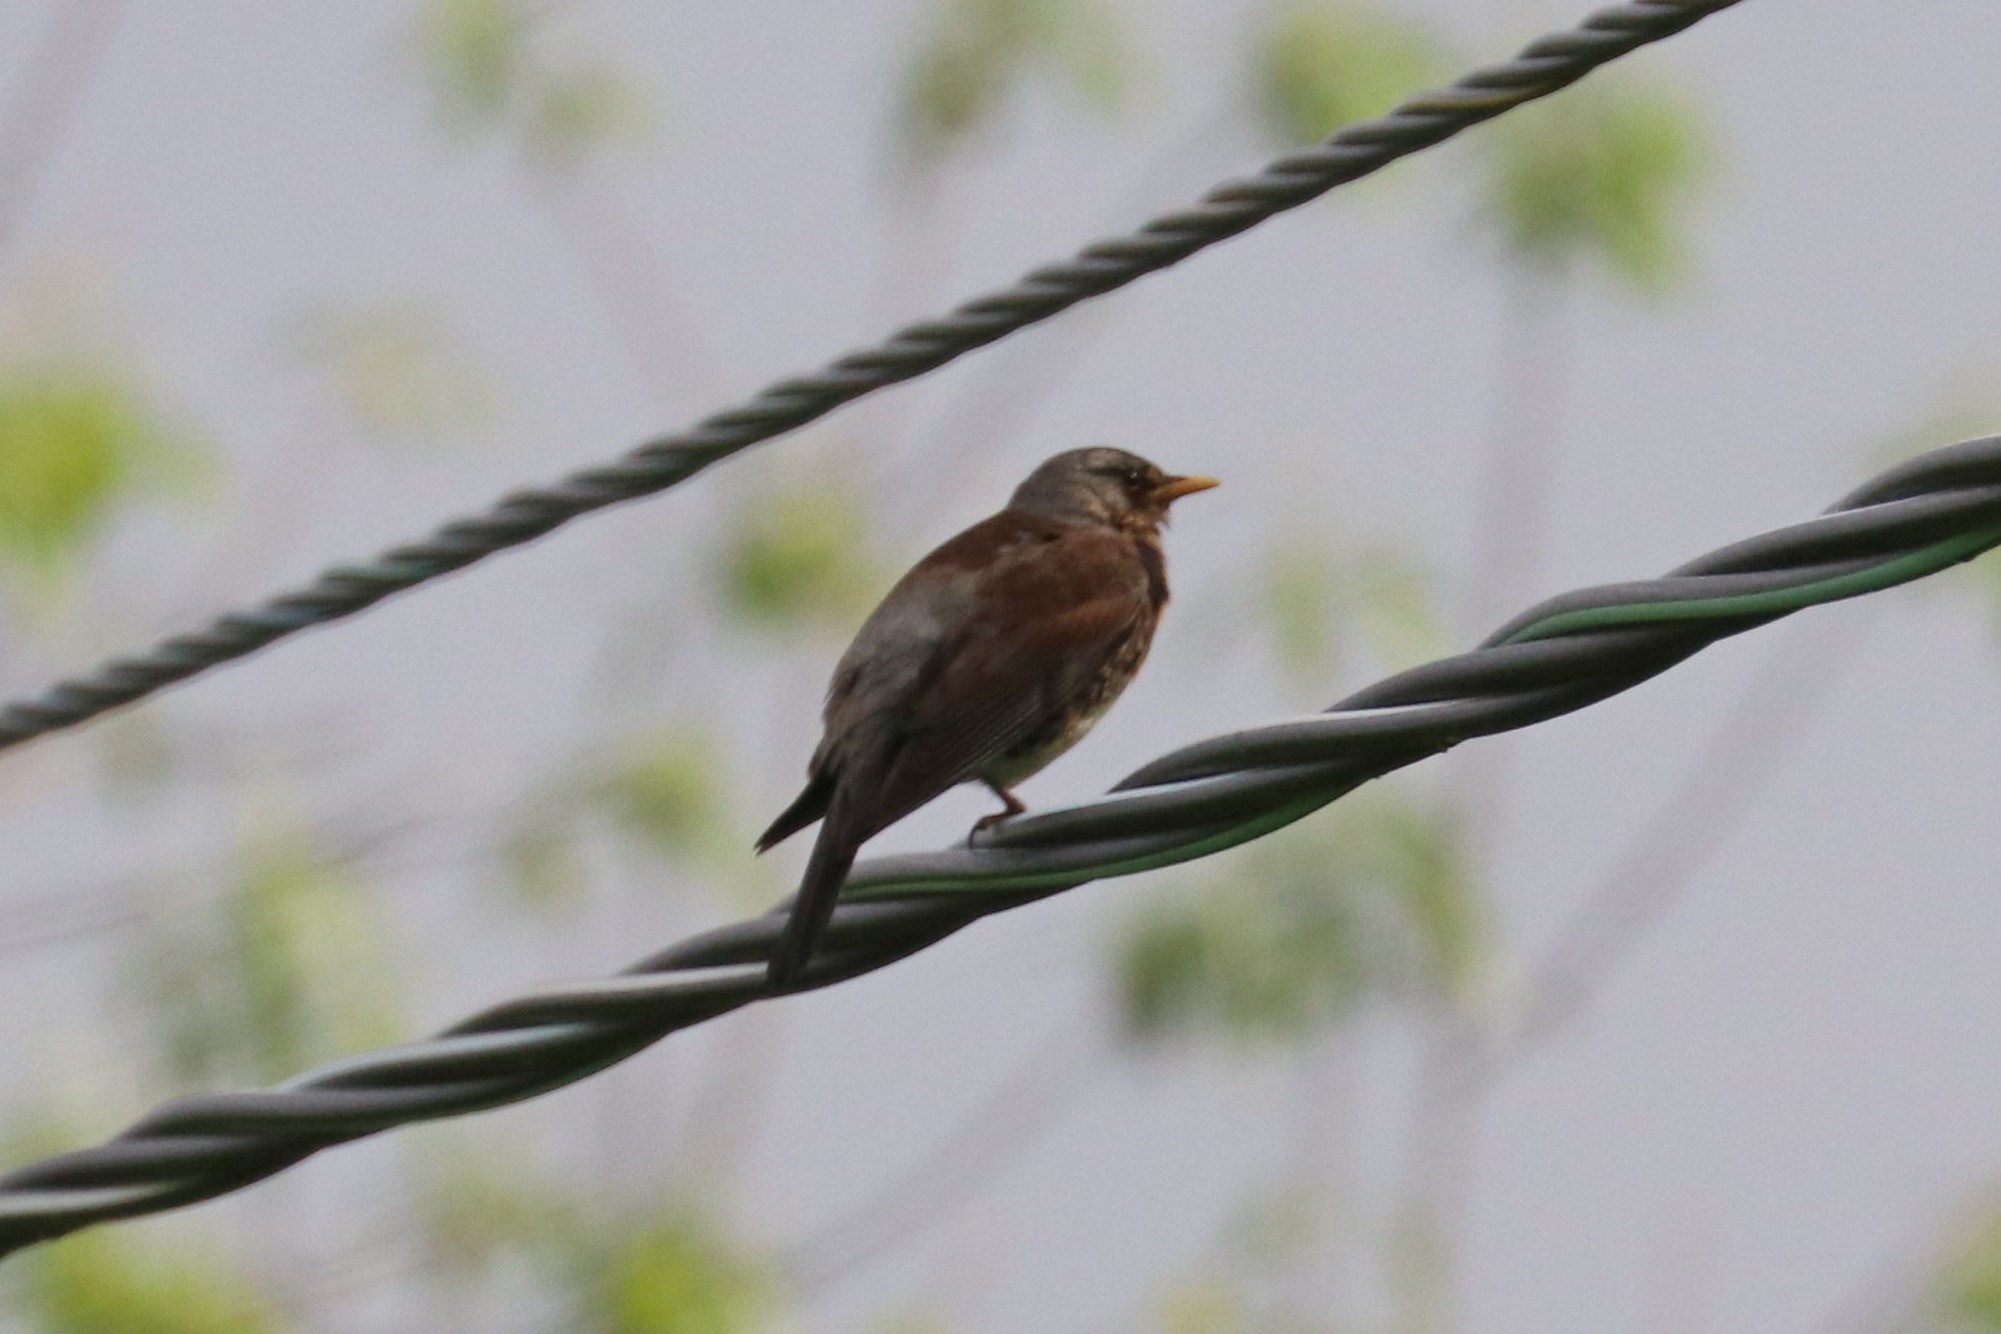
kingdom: Animalia
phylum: Chordata
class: Aves
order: Passeriformes
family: Turdidae
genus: Turdus
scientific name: Turdus pilaris
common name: Fieldfare
